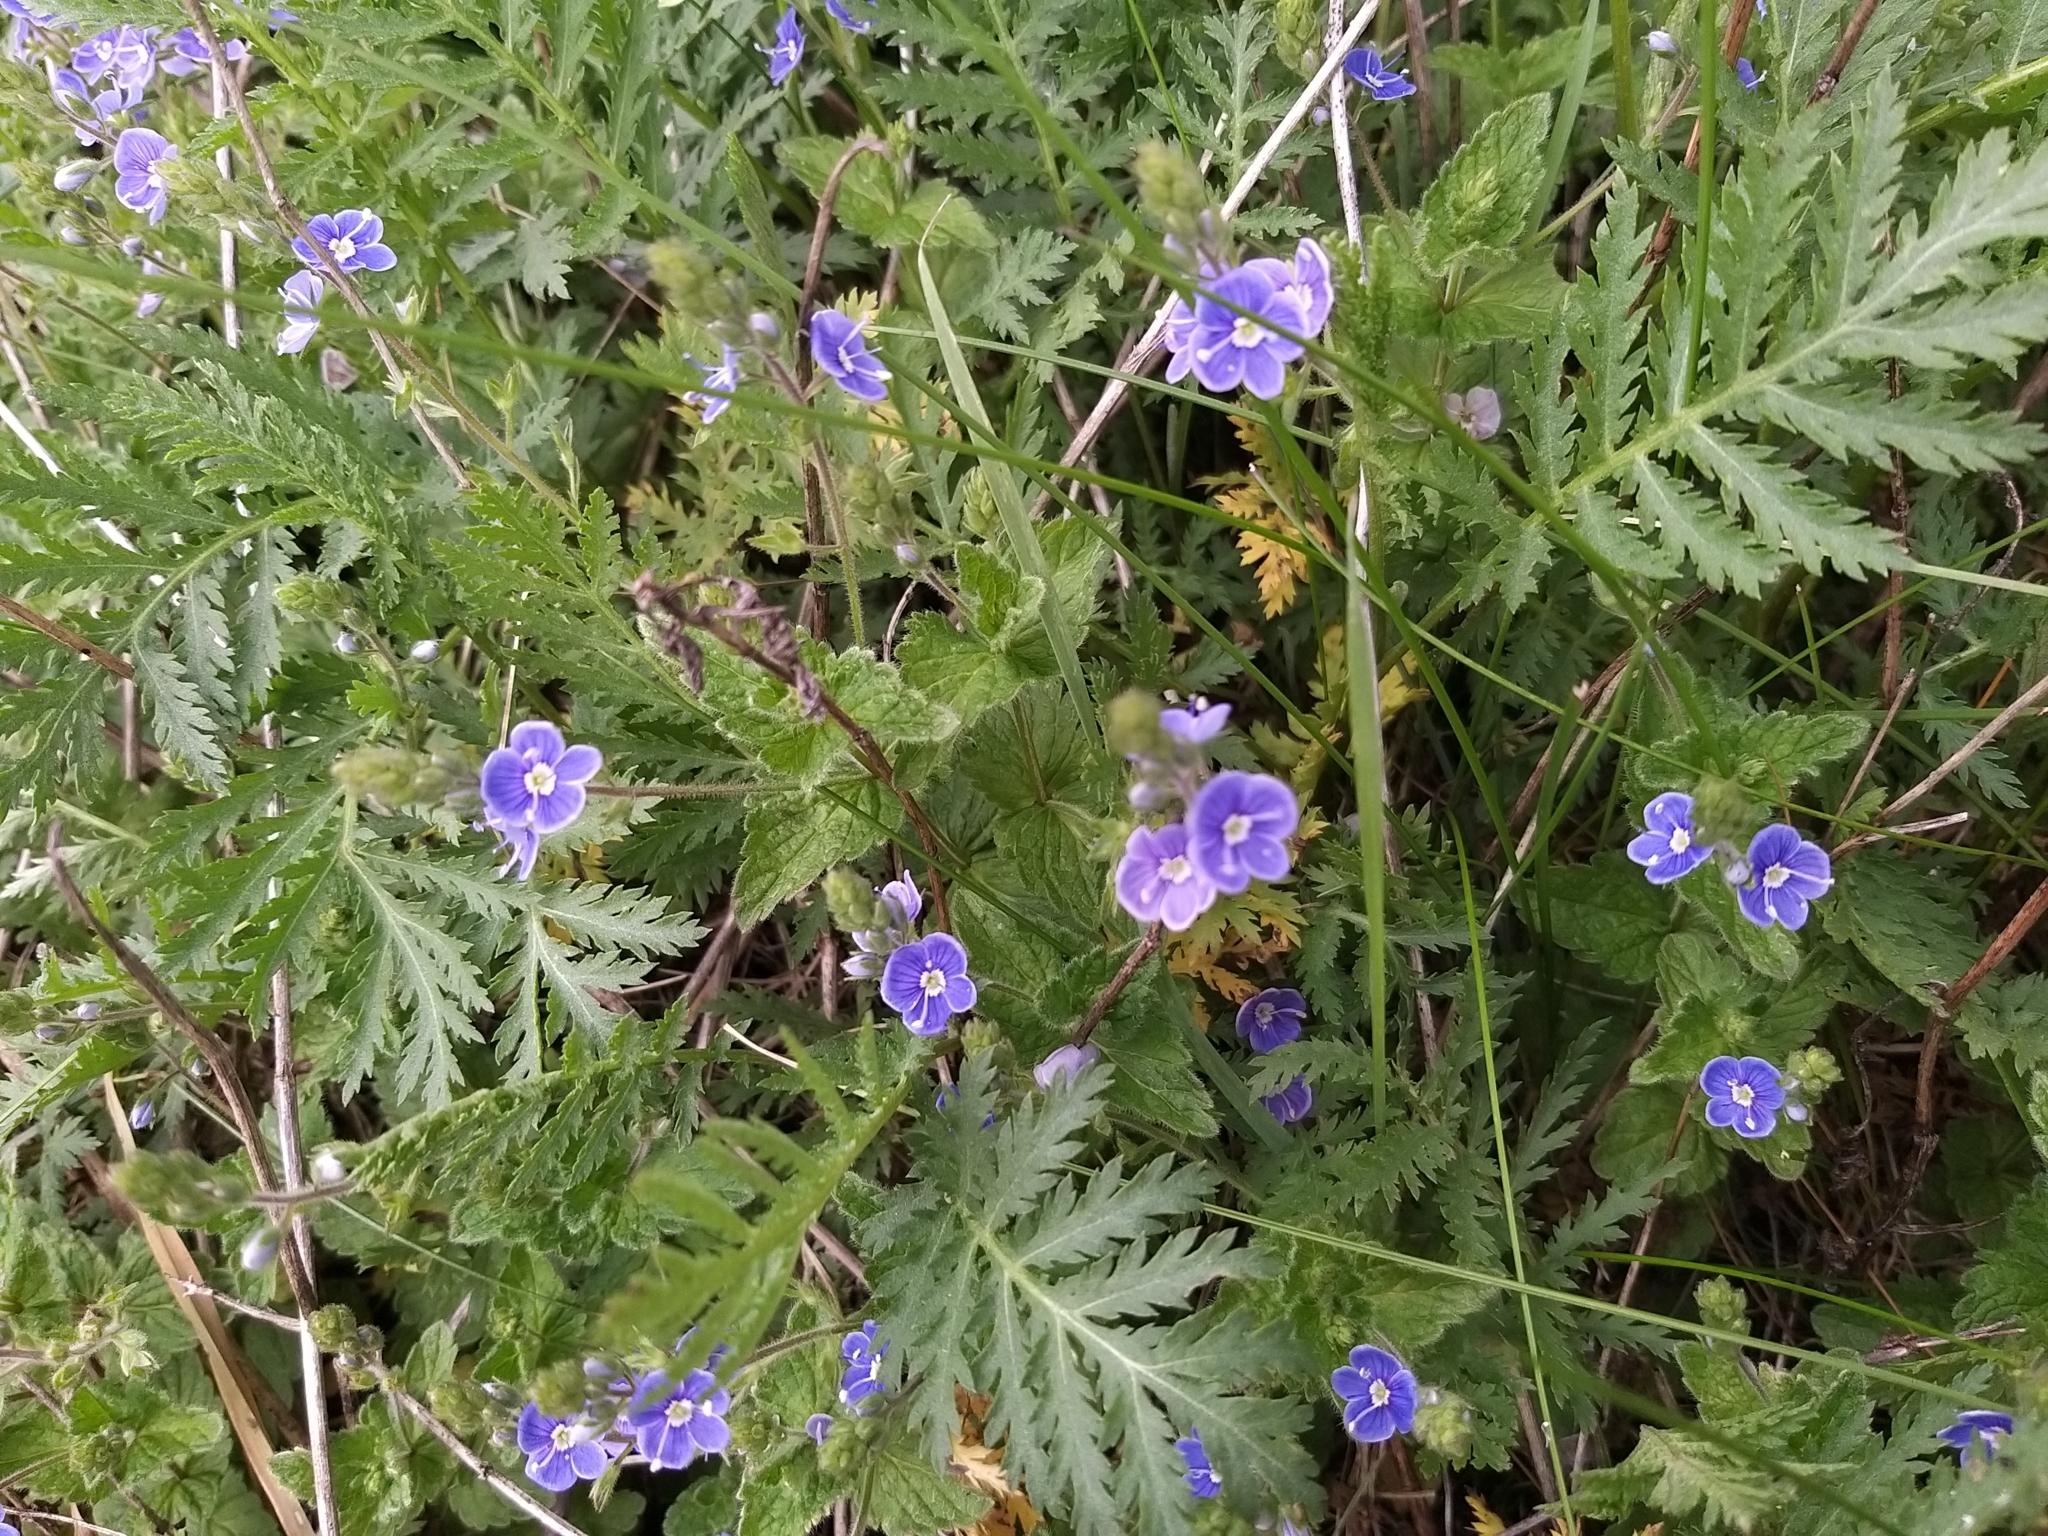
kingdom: Plantae
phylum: Tracheophyta
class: Magnoliopsida
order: Lamiales
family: Plantaginaceae
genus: Veronica
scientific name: Veronica chamaedrys
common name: Germander speedwell
